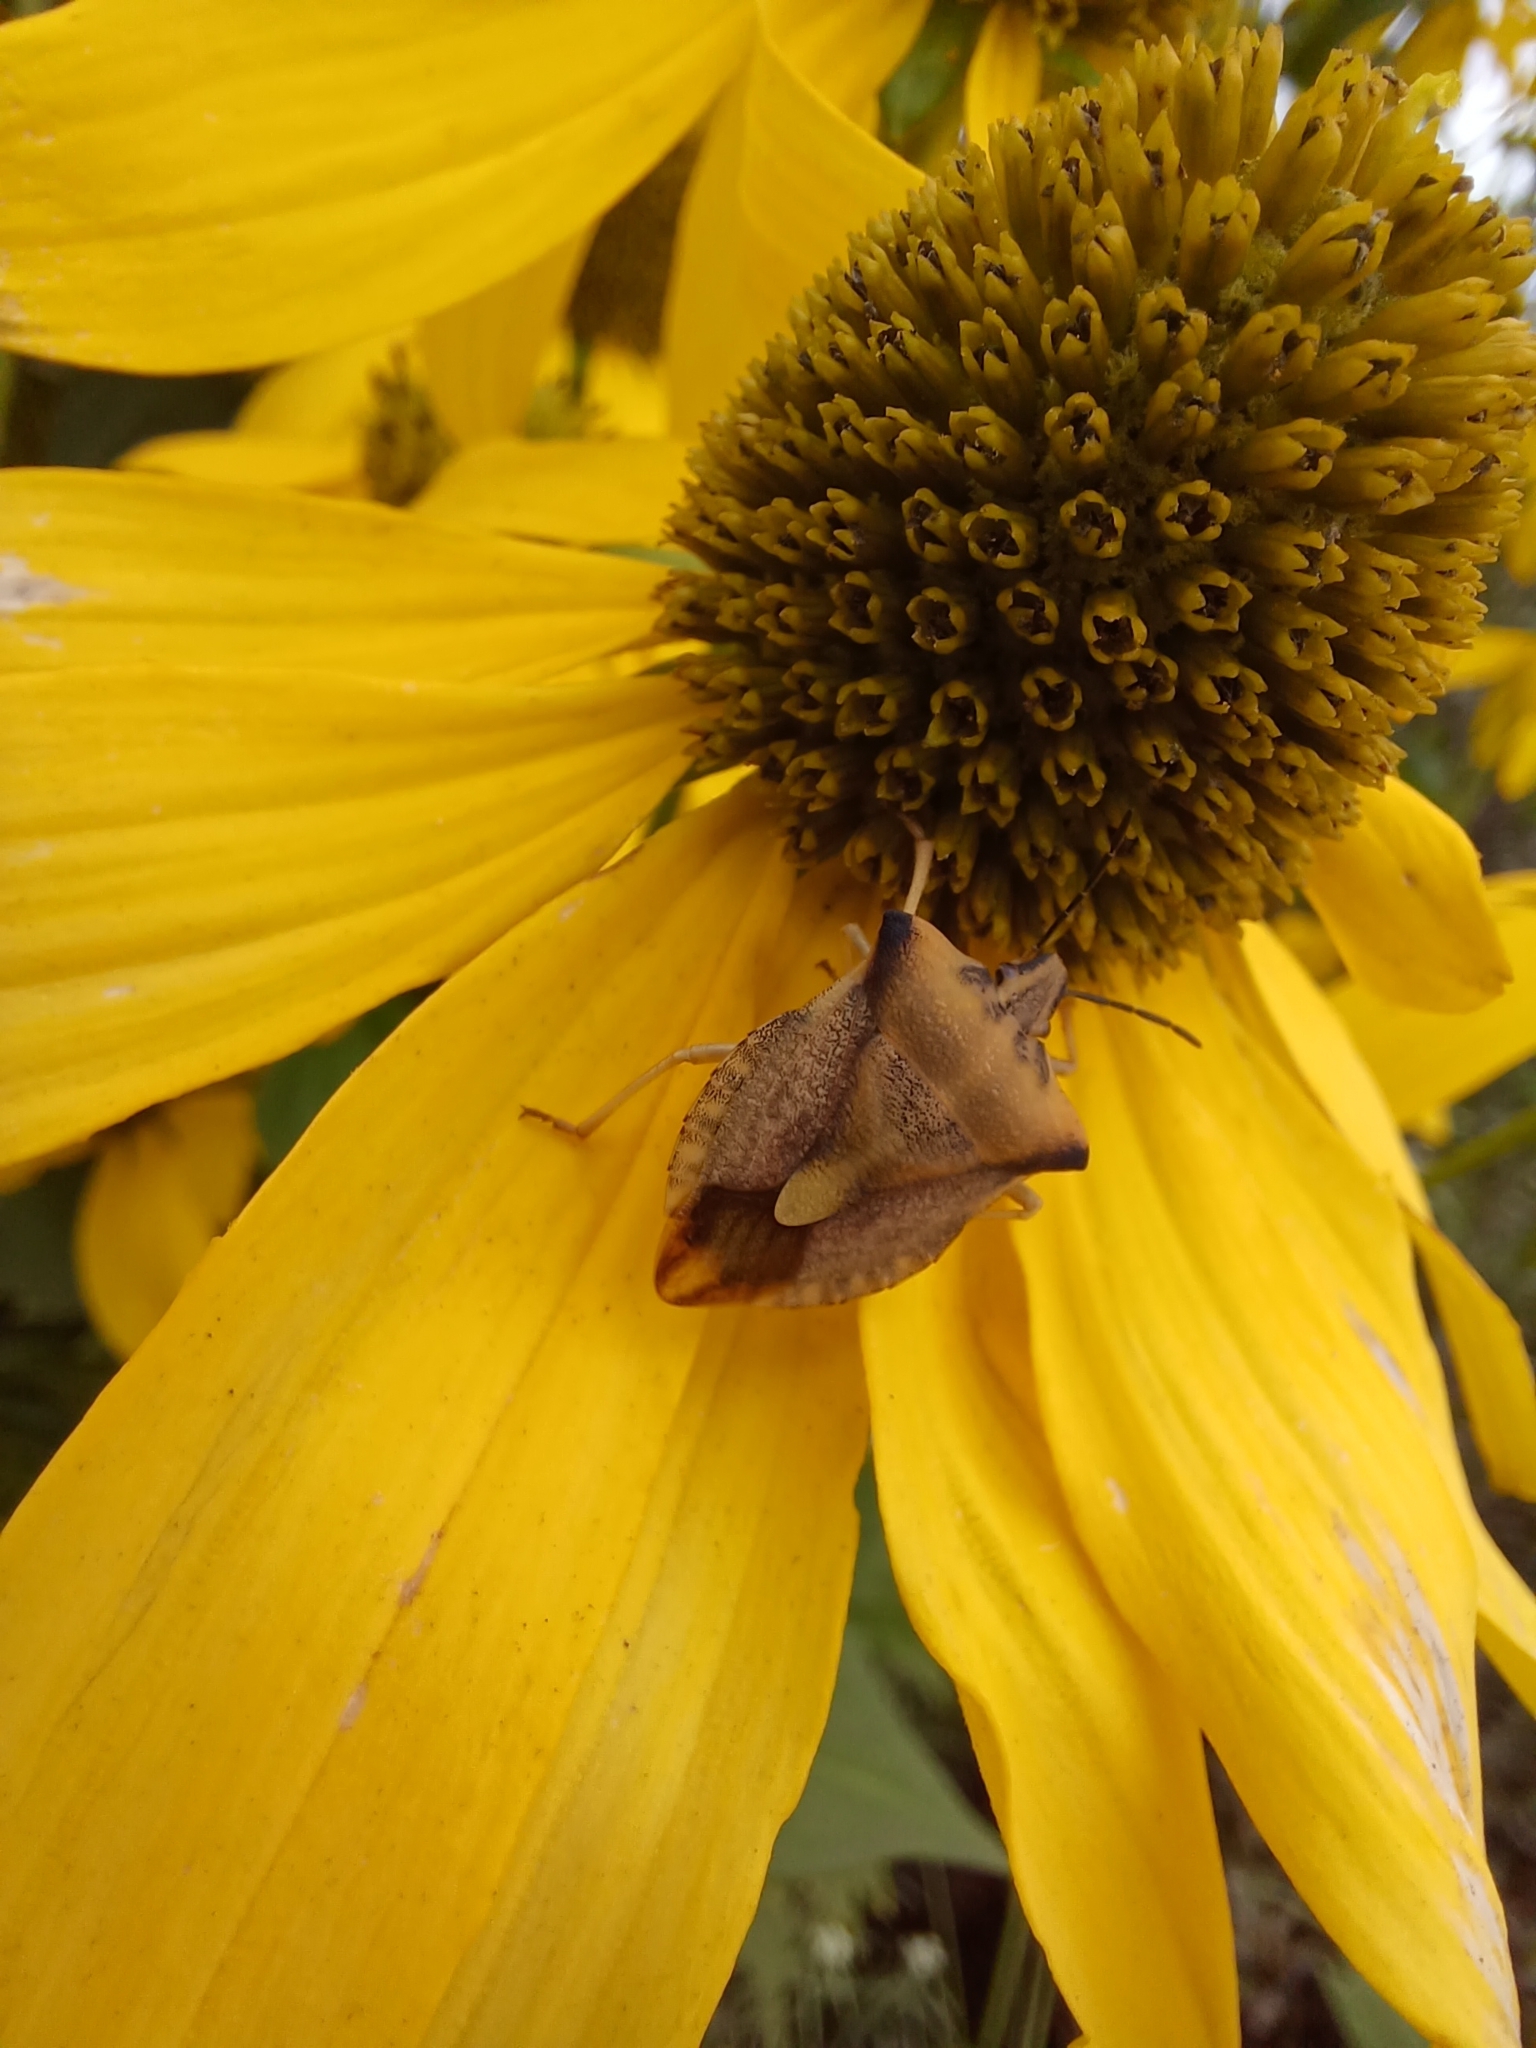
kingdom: Animalia
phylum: Arthropoda
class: Insecta
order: Hemiptera
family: Pentatomidae
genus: Carpocoris
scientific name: Carpocoris fuscispinus
